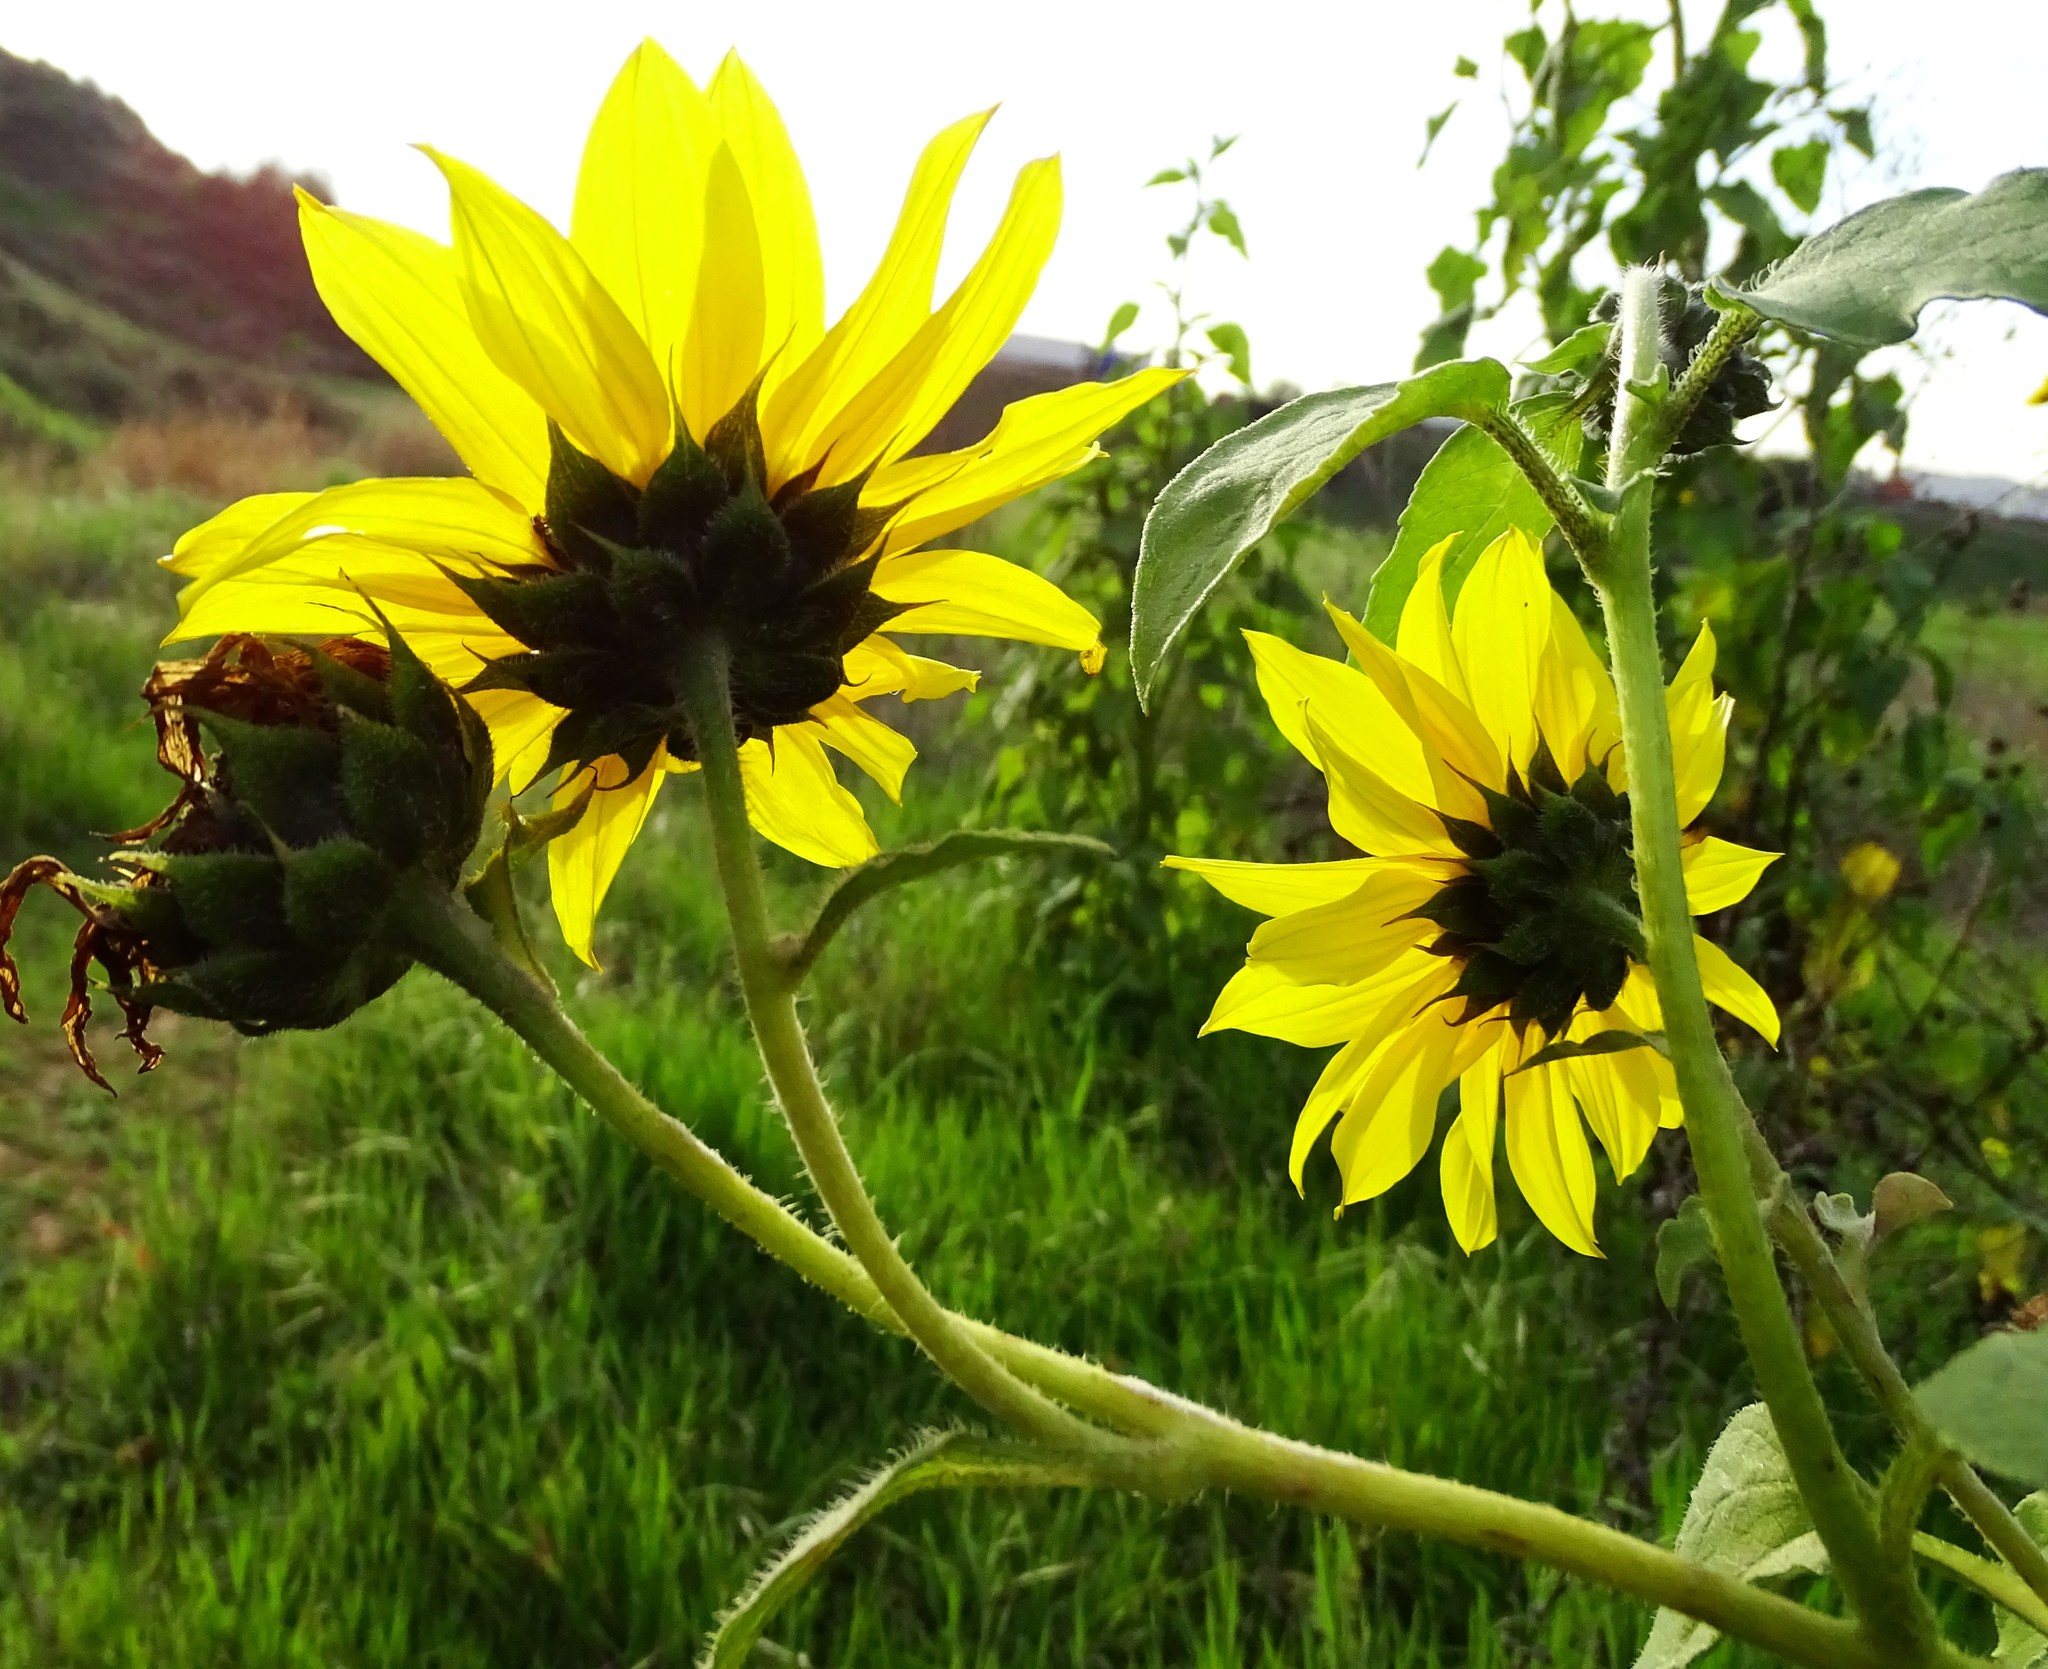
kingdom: Plantae
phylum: Tracheophyta
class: Magnoliopsida
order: Asterales
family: Asteraceae
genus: Helianthus
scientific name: Helianthus annuus
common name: Sunflower
